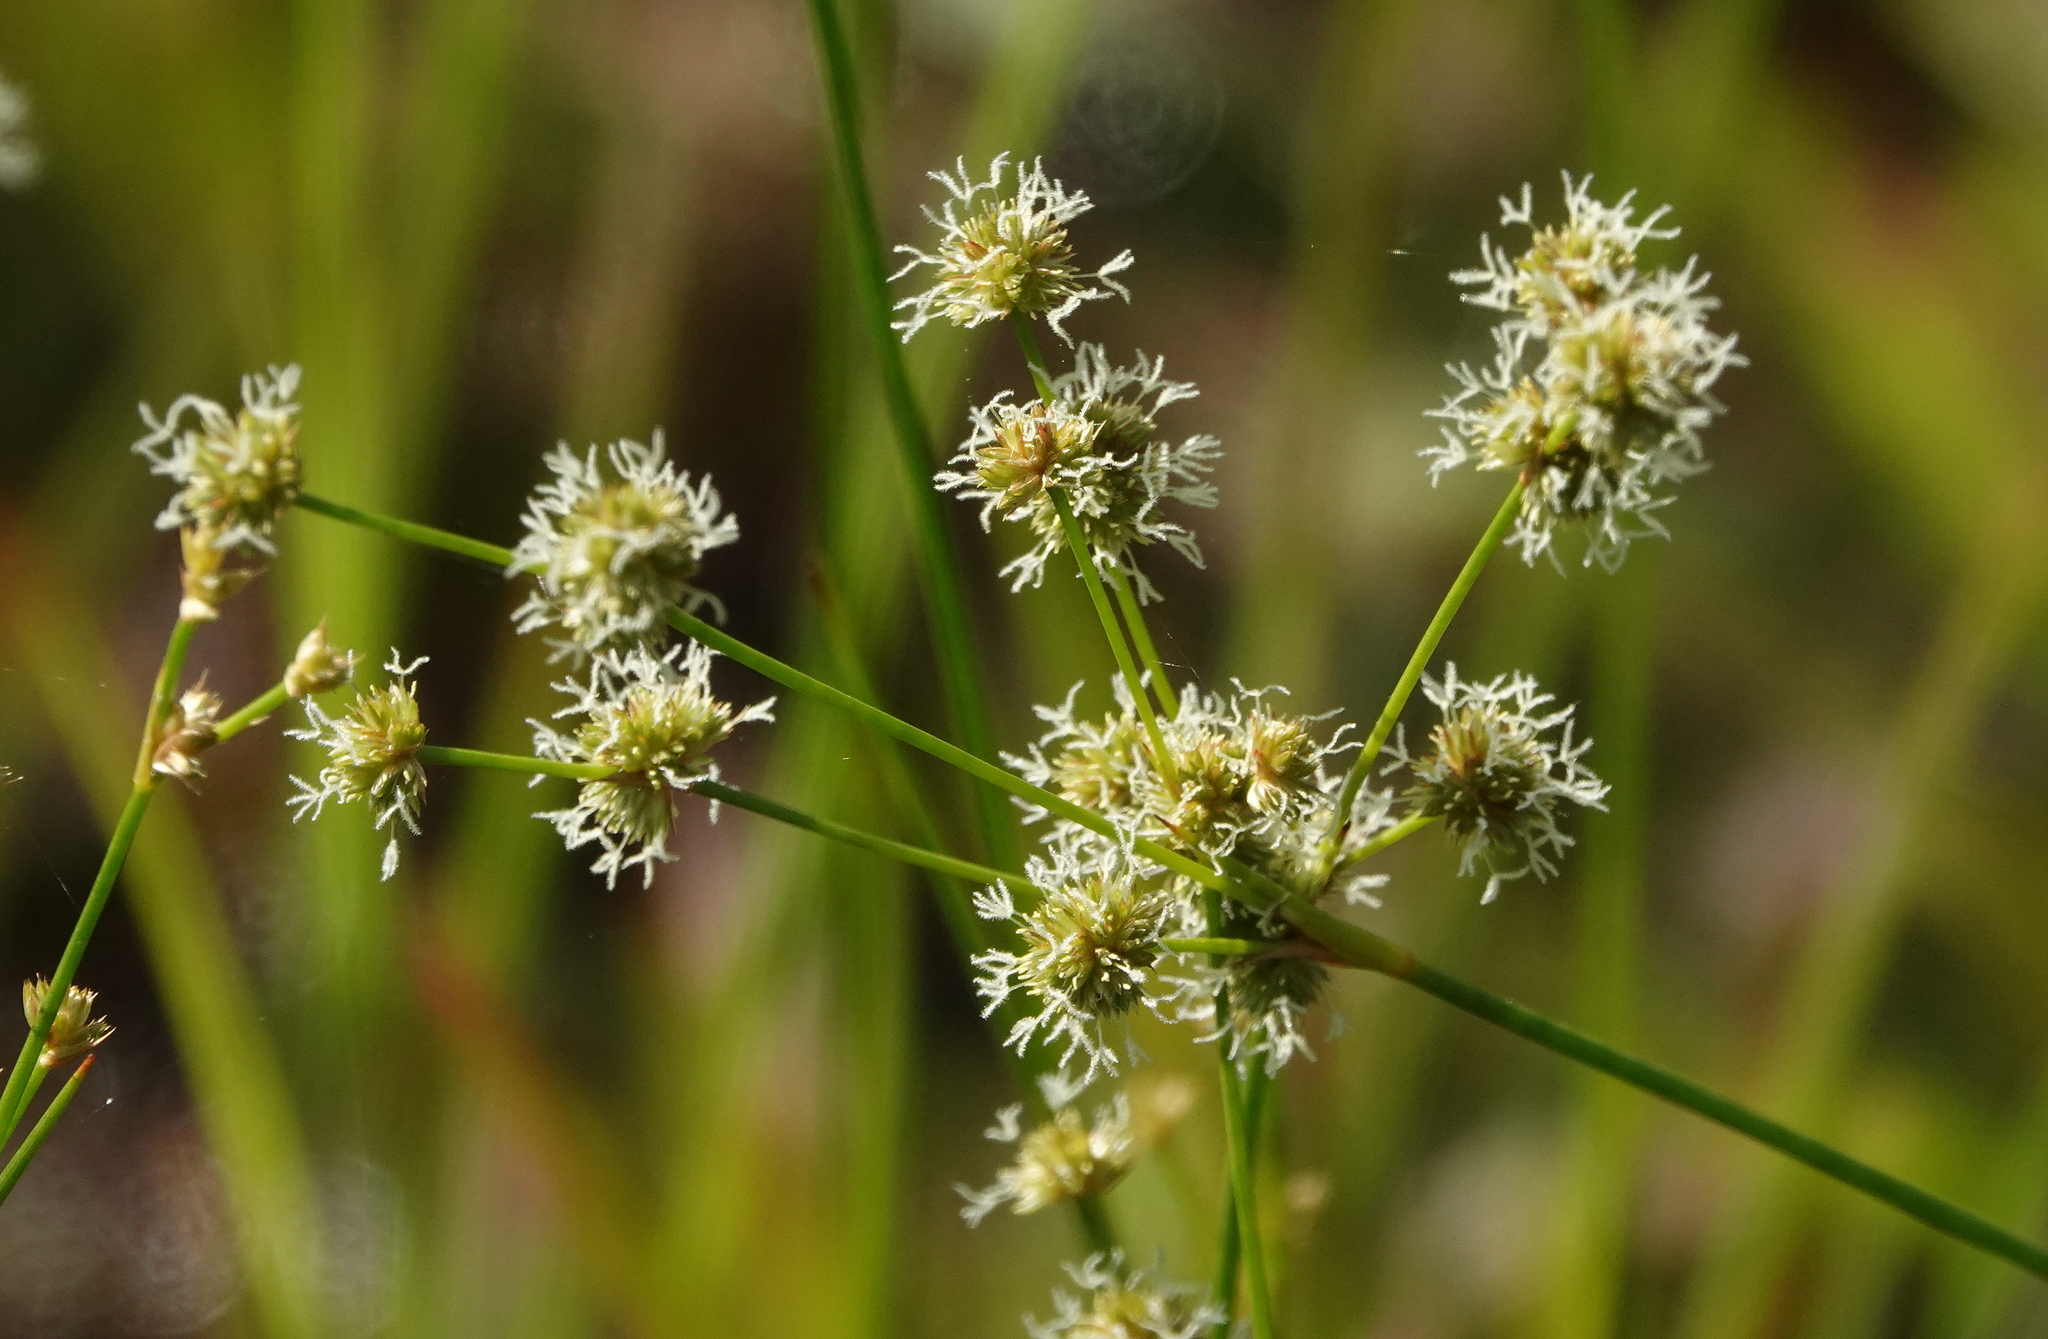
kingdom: Plantae
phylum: Tracheophyta
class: Liliopsida
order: Poales
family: Juncaceae
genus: Juncus
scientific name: Juncus scirpoides
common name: Needlepod rush
